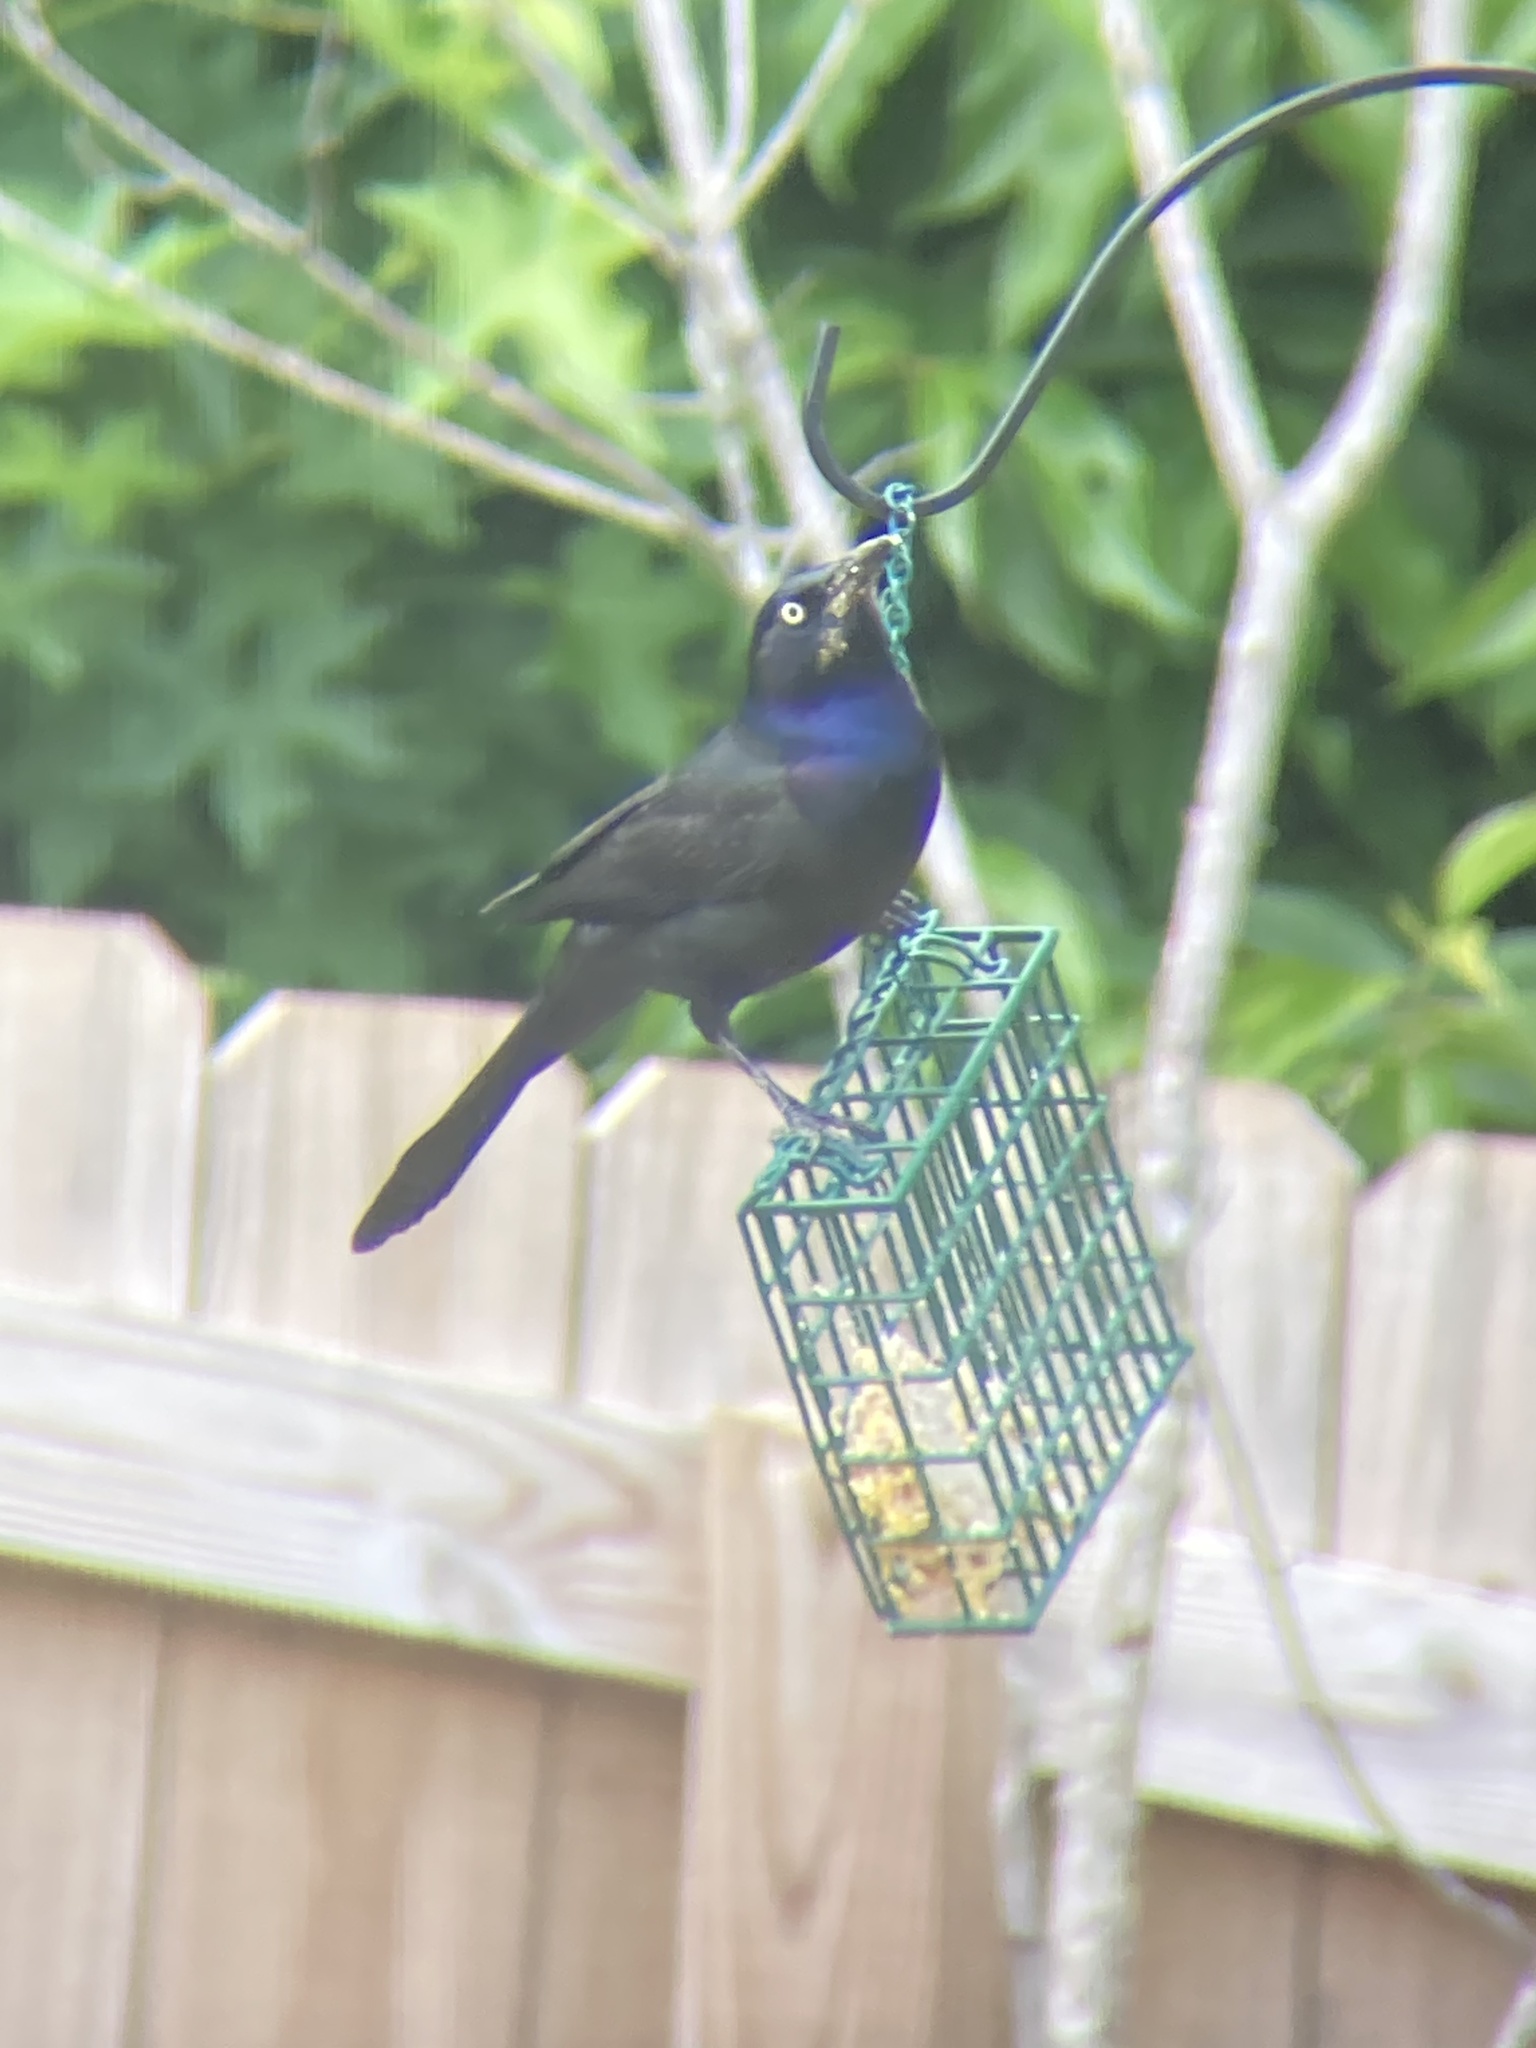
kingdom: Animalia
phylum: Chordata
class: Aves
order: Passeriformes
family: Icteridae
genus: Quiscalus
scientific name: Quiscalus quiscula
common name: Common grackle
